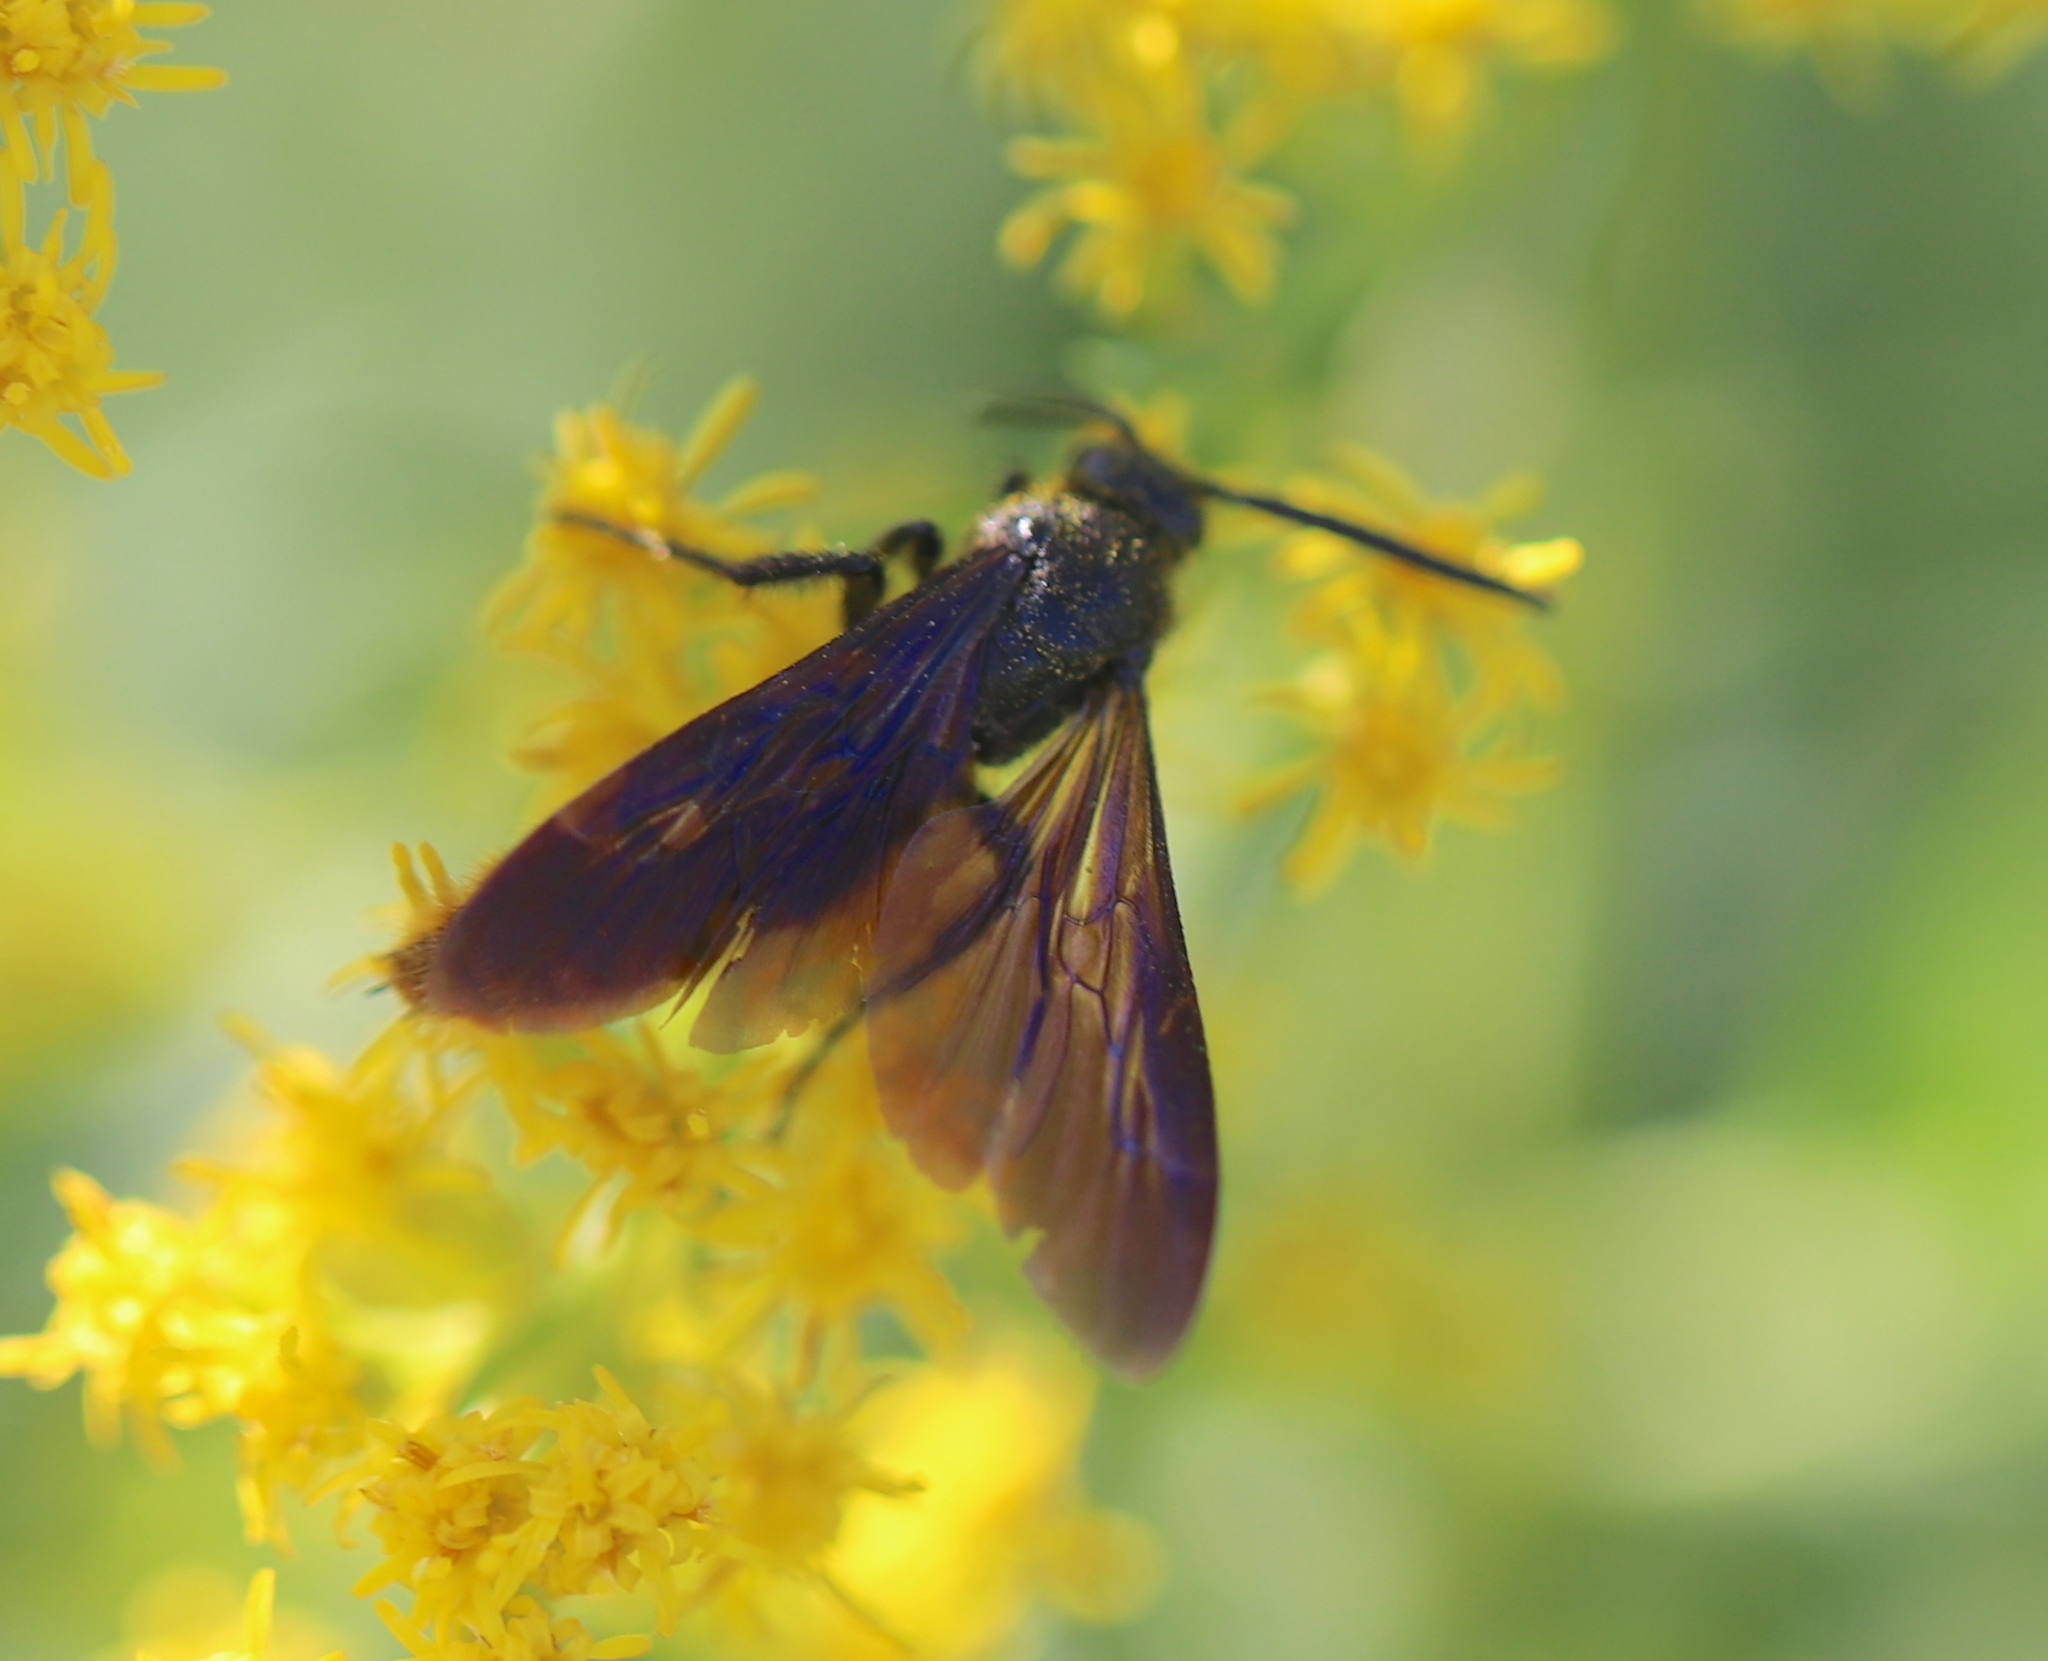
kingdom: Animalia
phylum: Arthropoda
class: Insecta
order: Hymenoptera
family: Scoliidae
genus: Scolia
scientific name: Scolia dubia
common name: Blue-winged scoliid wasp
